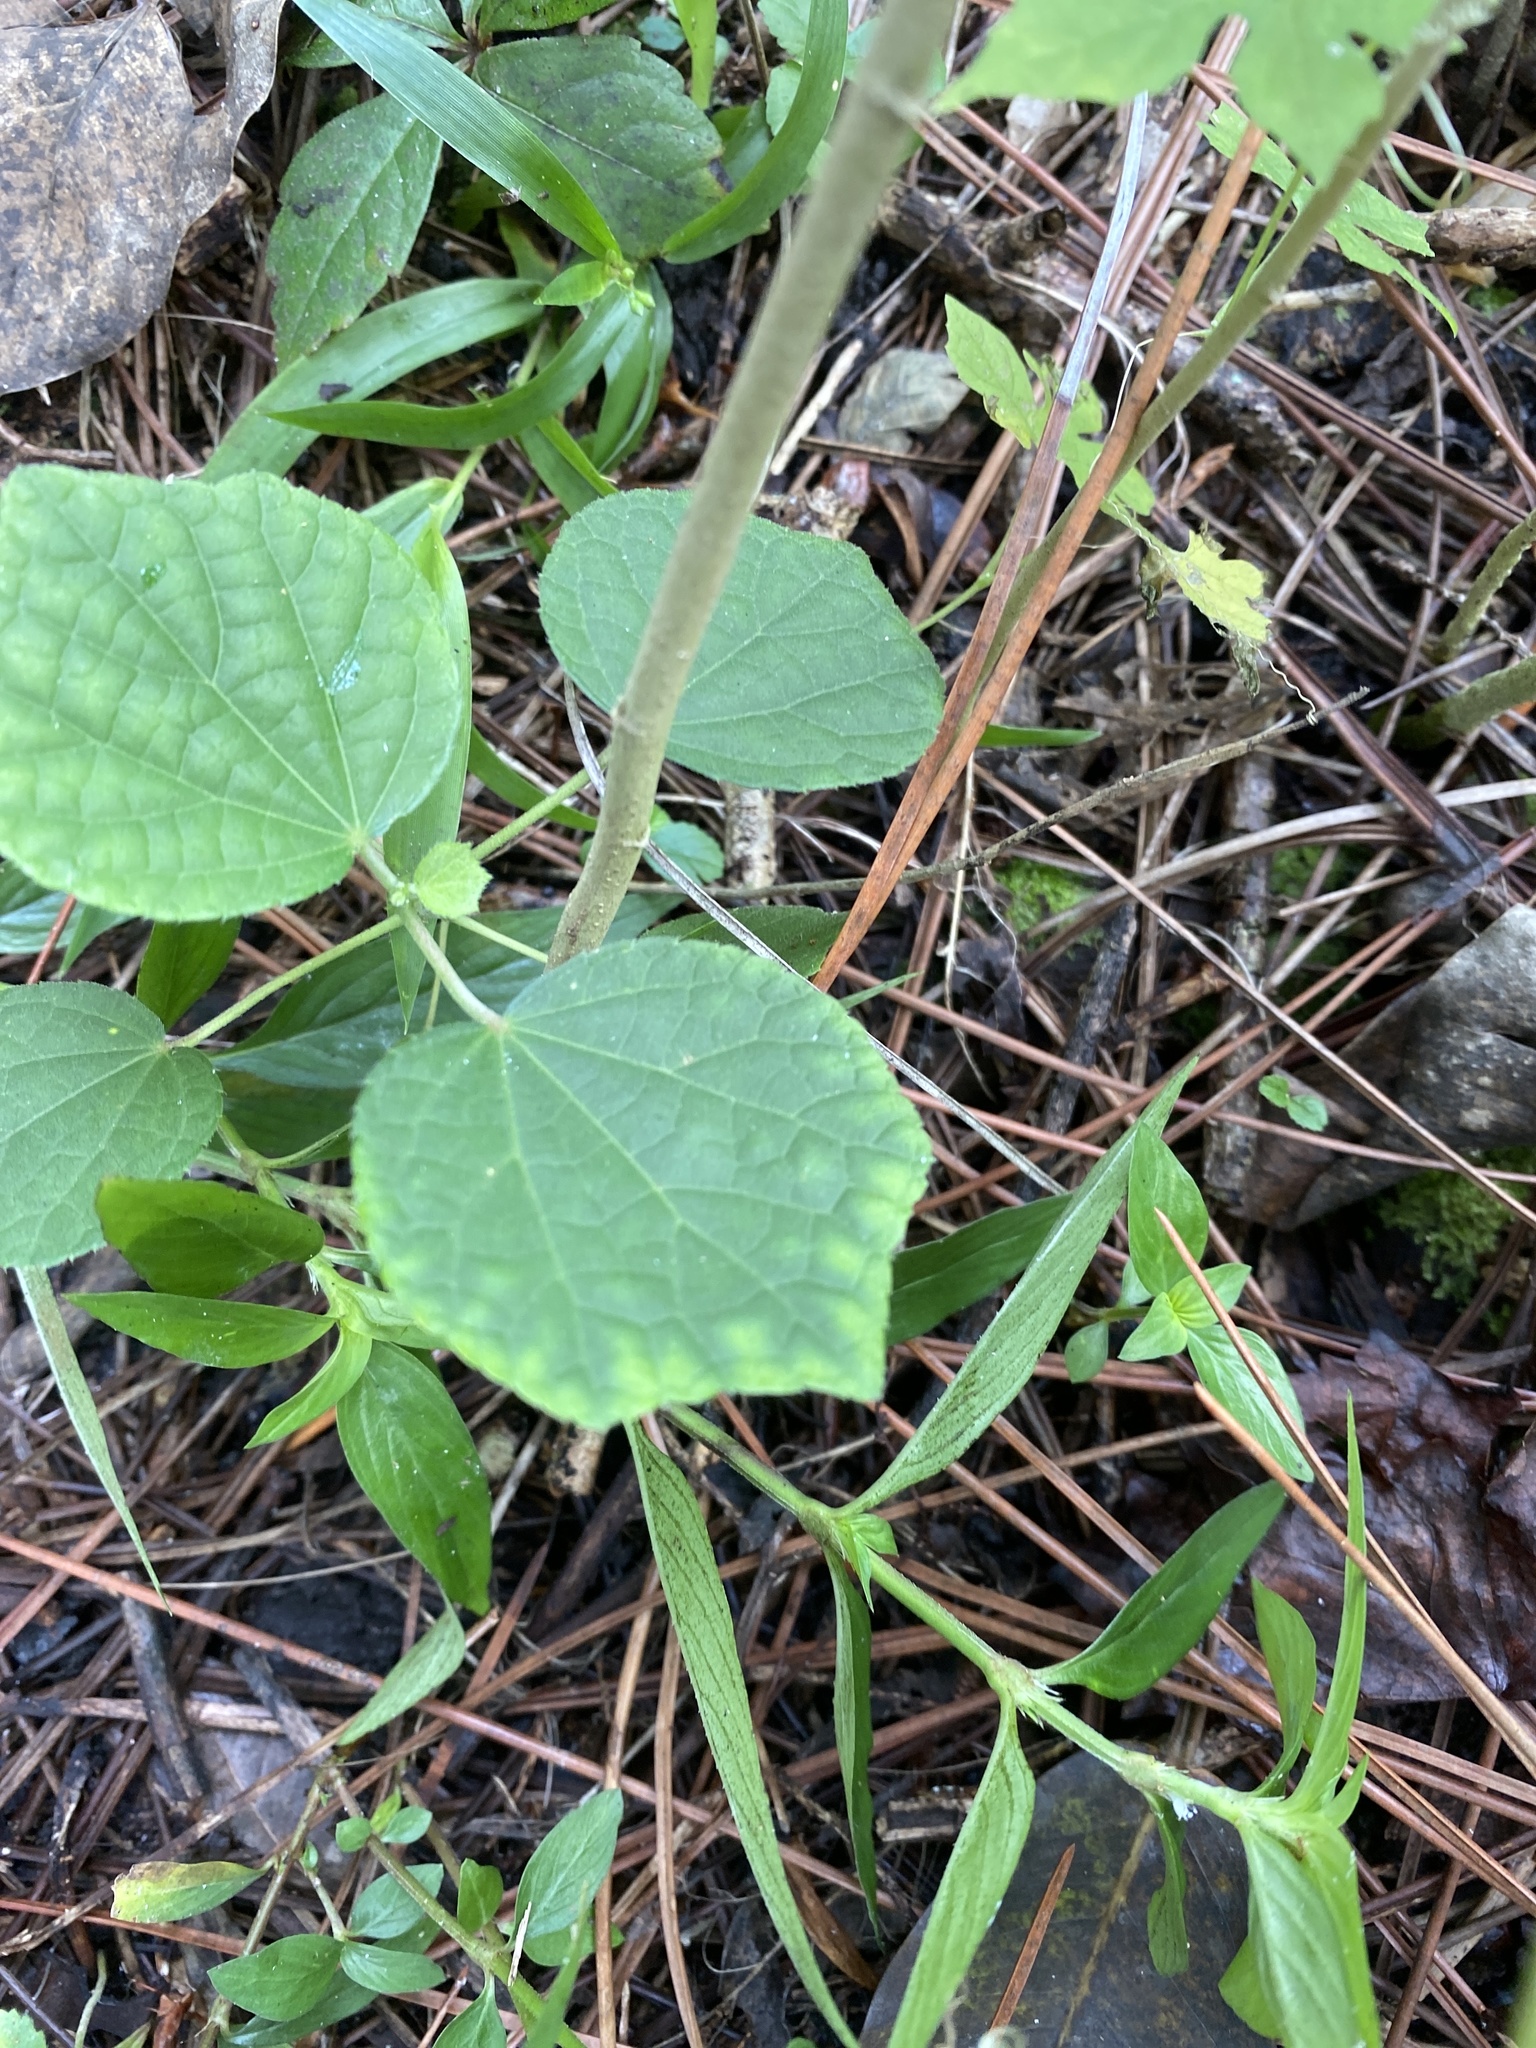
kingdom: Plantae
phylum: Tracheophyta
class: Magnoliopsida
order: Malvales
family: Malvaceae
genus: Urena
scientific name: Urena lobata
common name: Caesarweed
